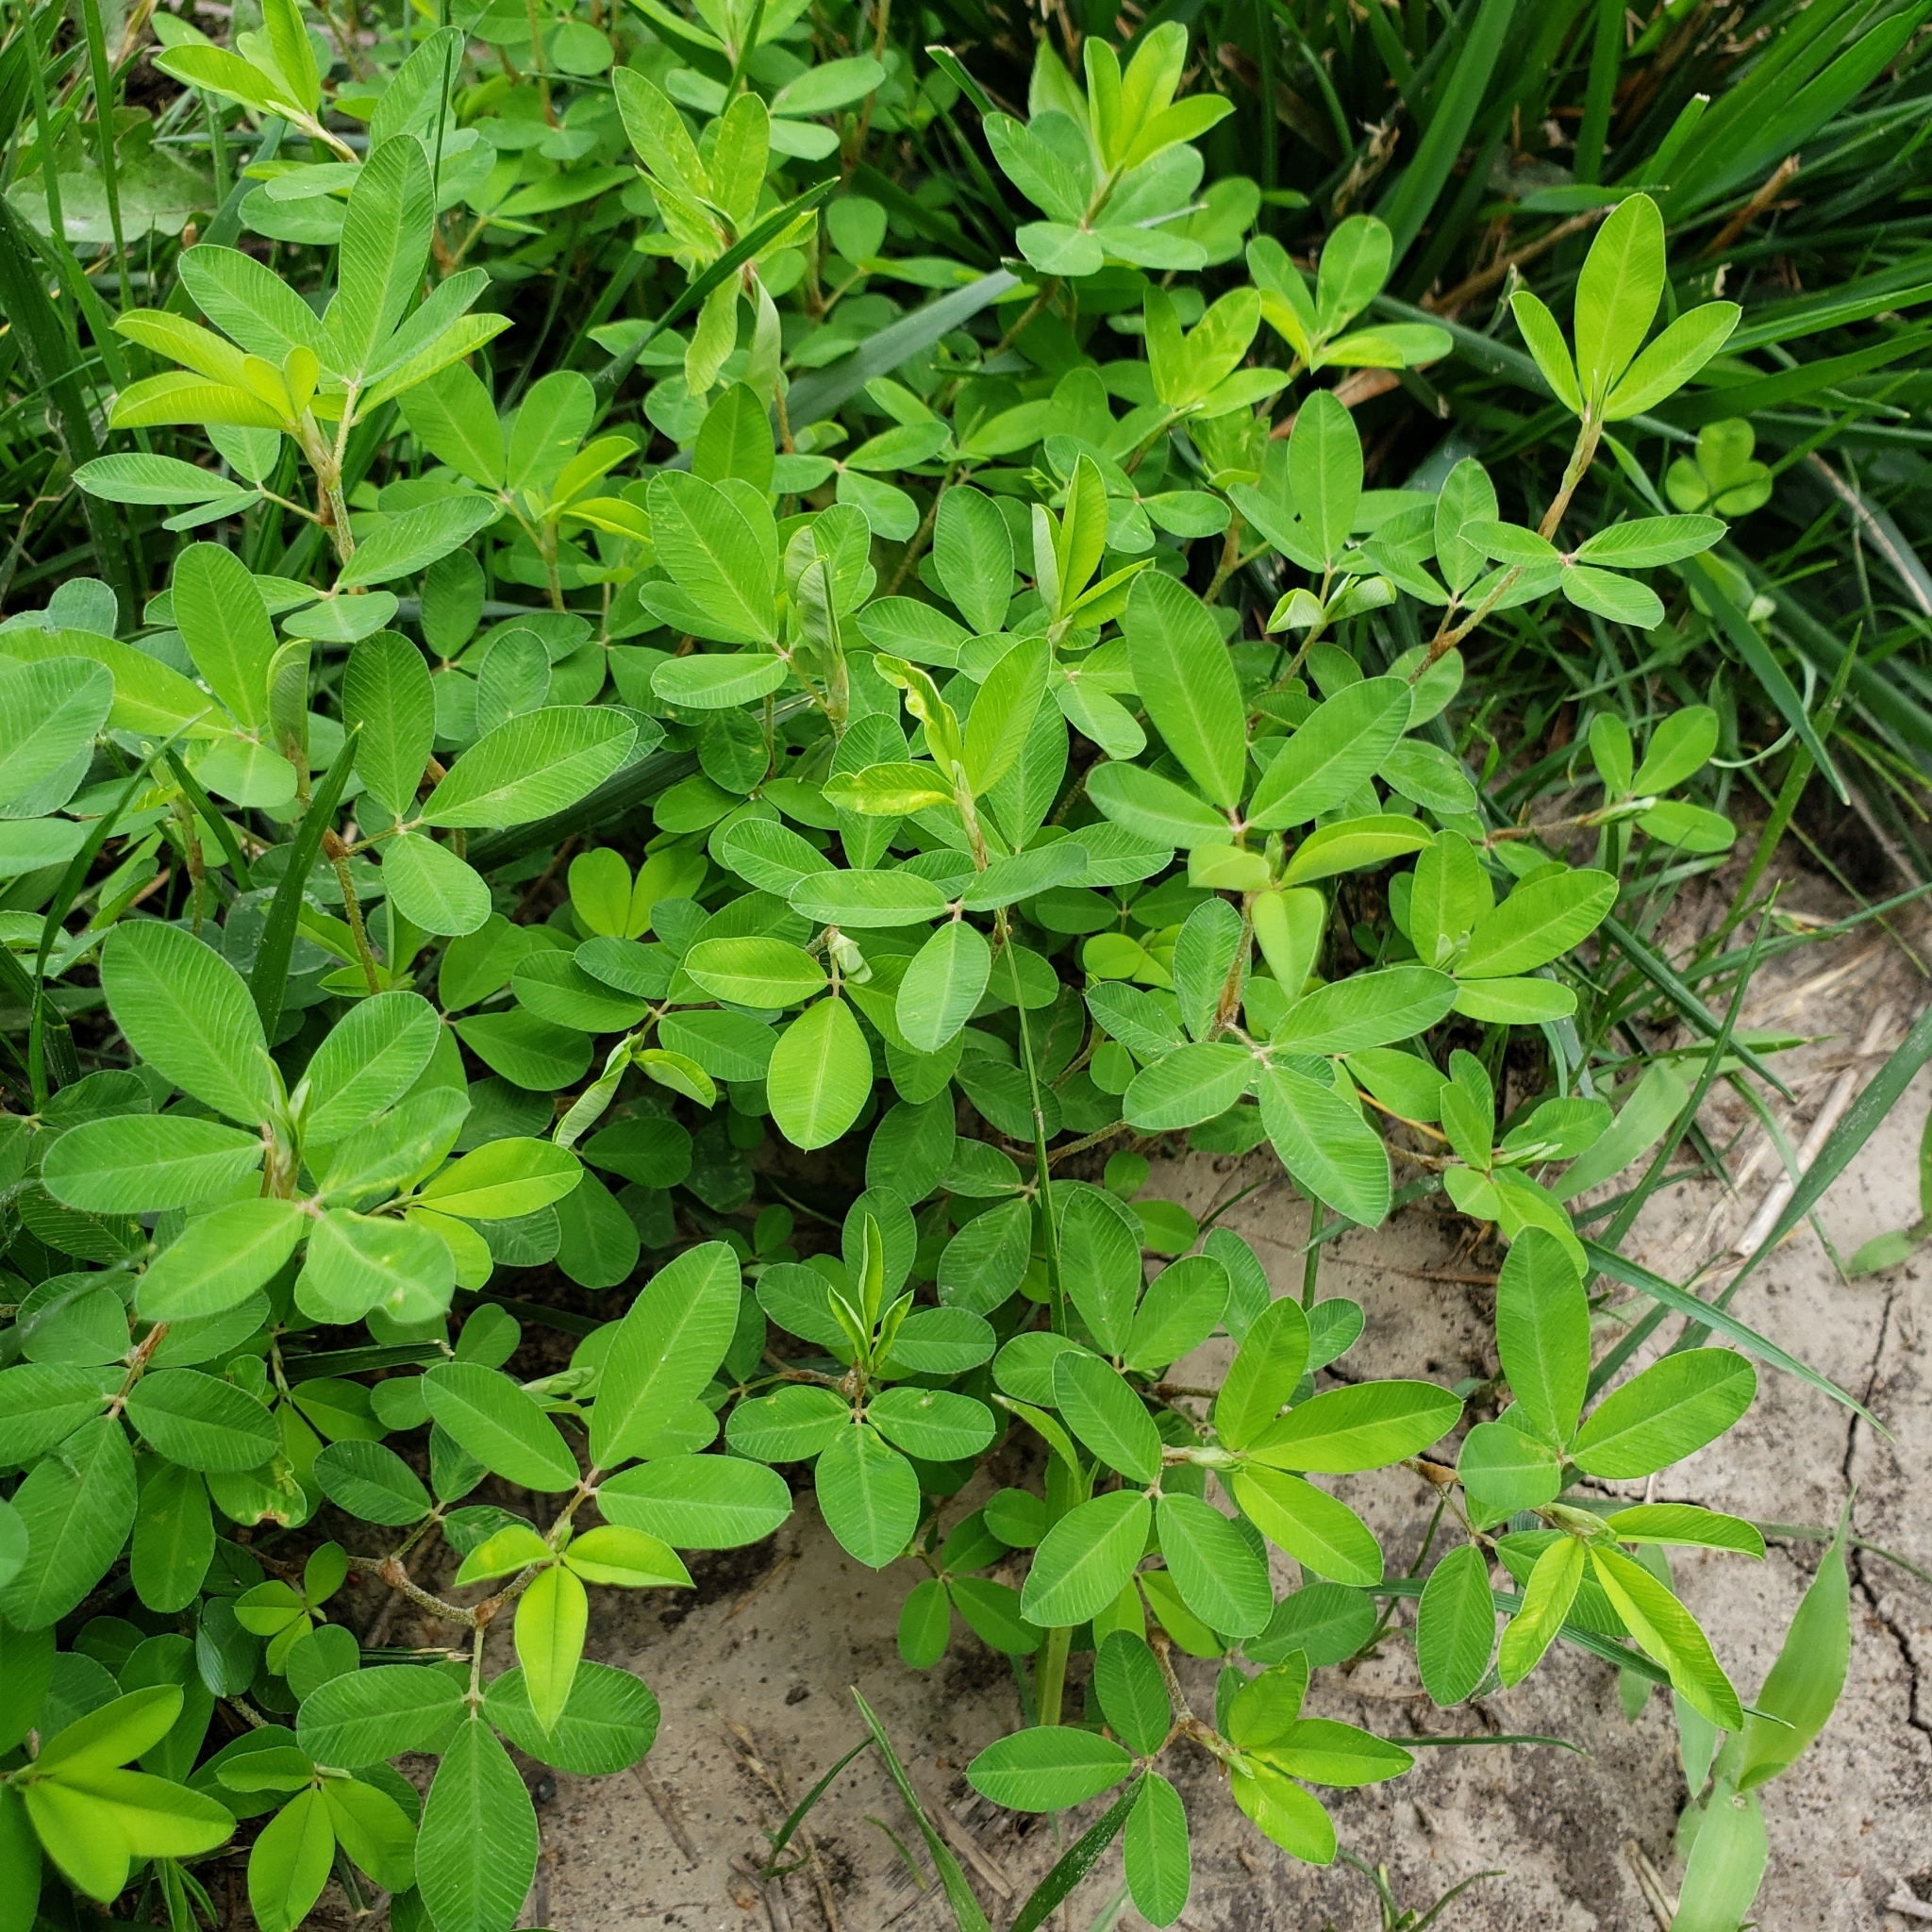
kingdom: Plantae
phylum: Tracheophyta
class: Magnoliopsida
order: Fabales
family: Fabaceae
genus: Kummerowia
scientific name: Kummerowia striata
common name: Japanese clover
